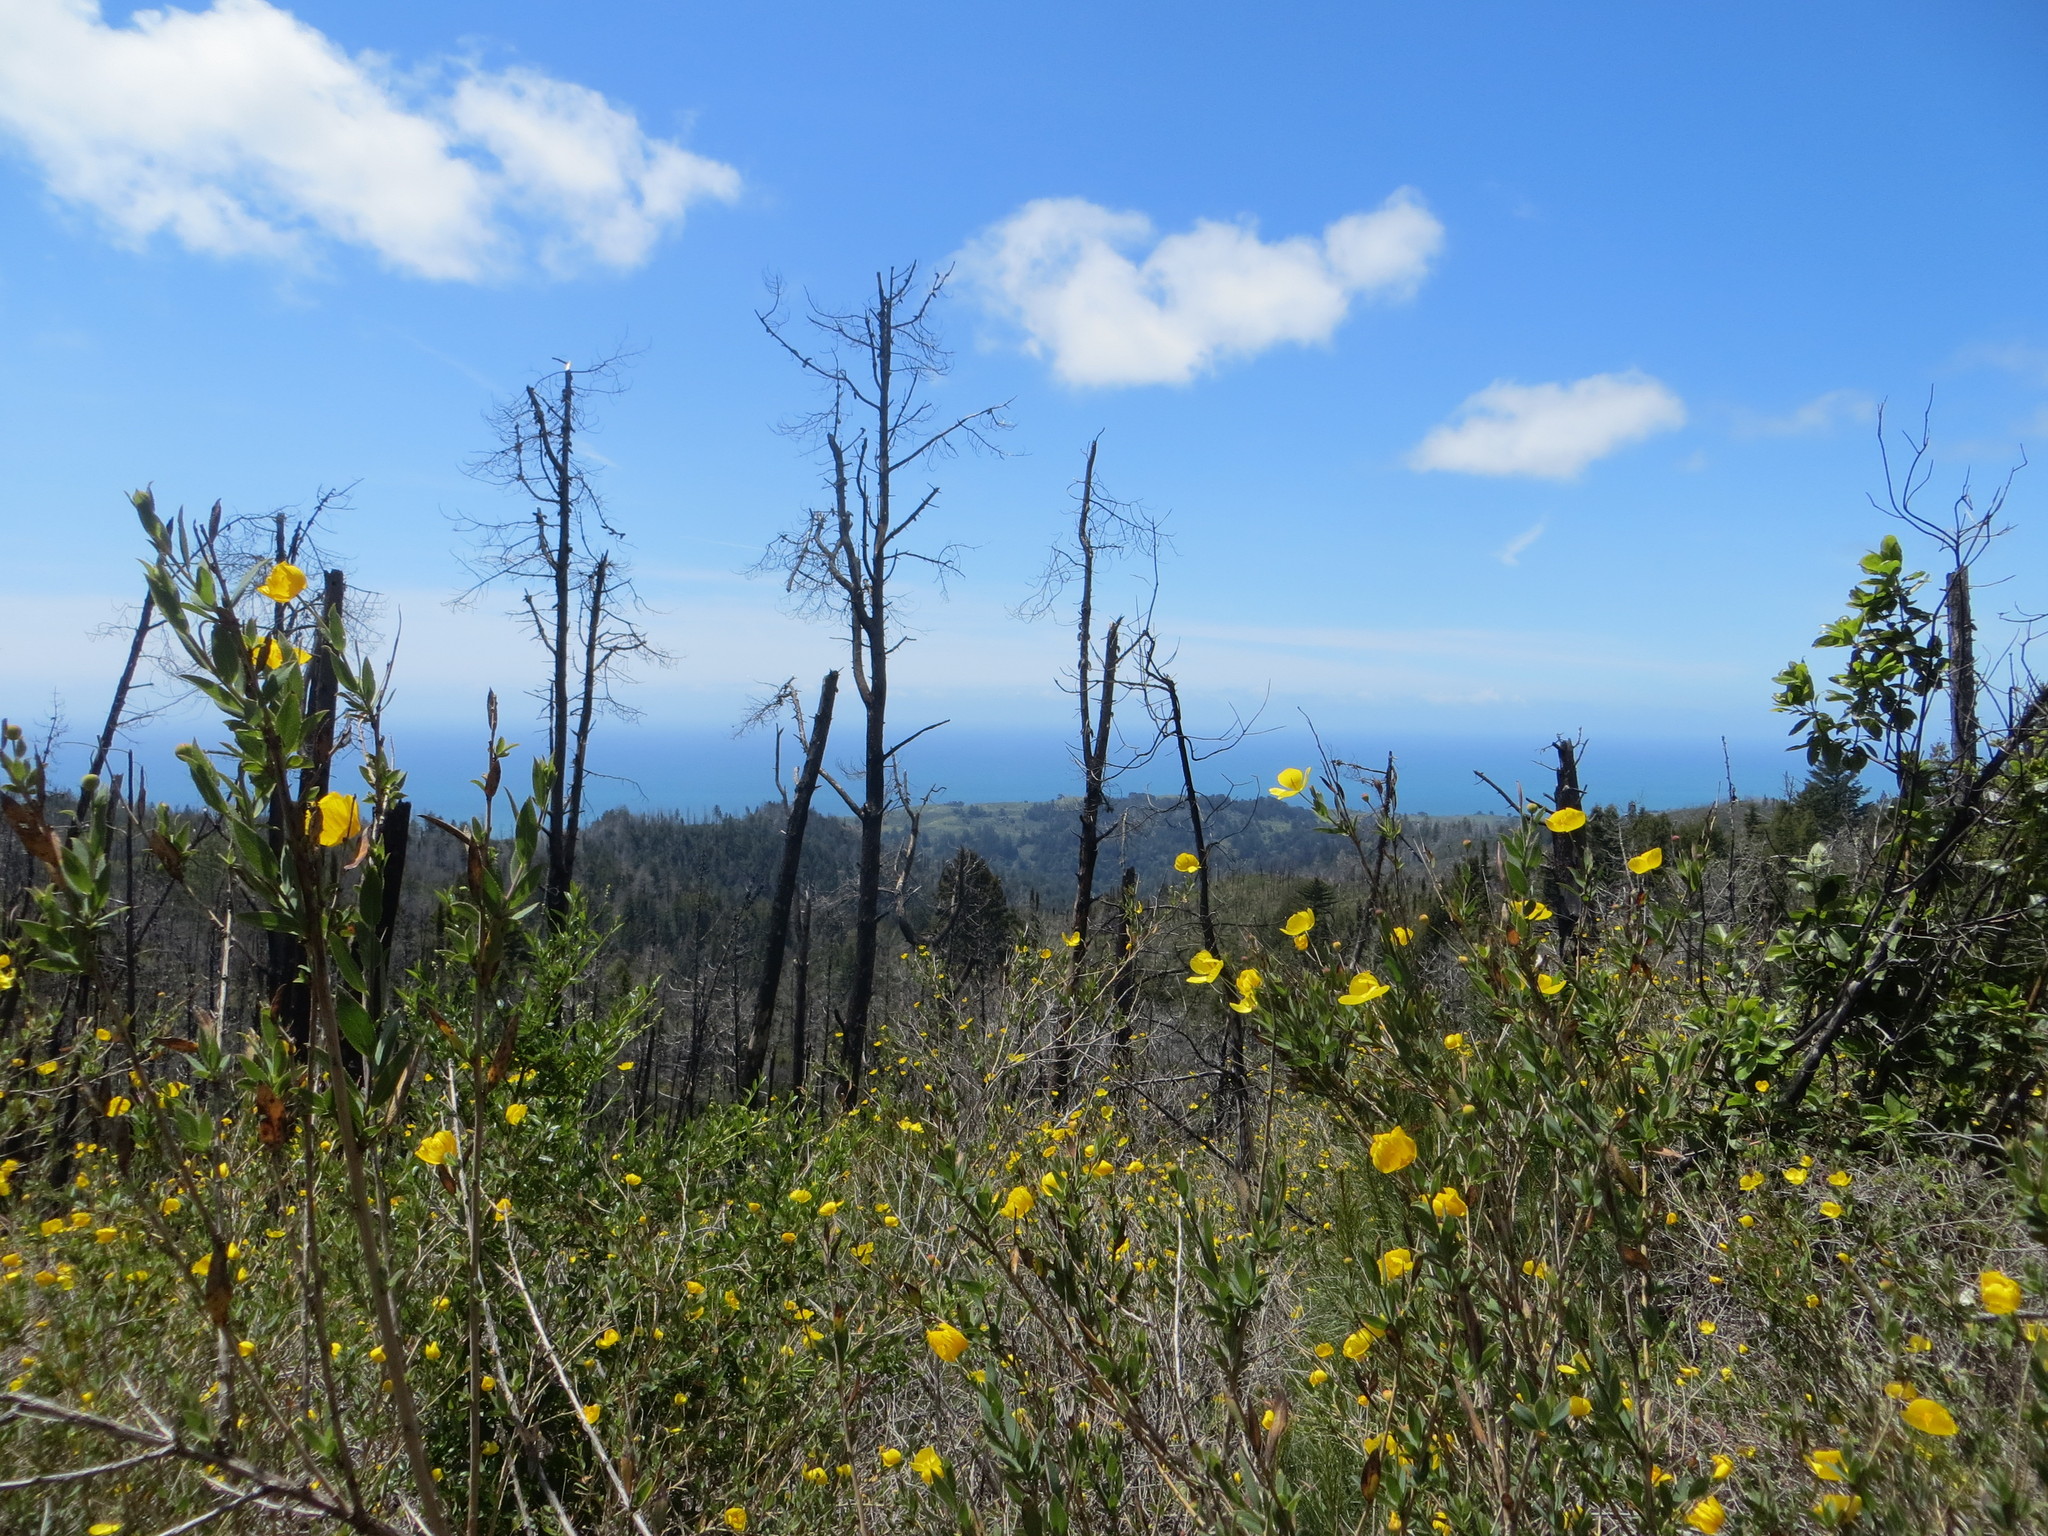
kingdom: Plantae
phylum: Tracheophyta
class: Magnoliopsida
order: Ranunculales
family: Papaveraceae
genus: Dendromecon
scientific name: Dendromecon rigida
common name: Tree poppy
